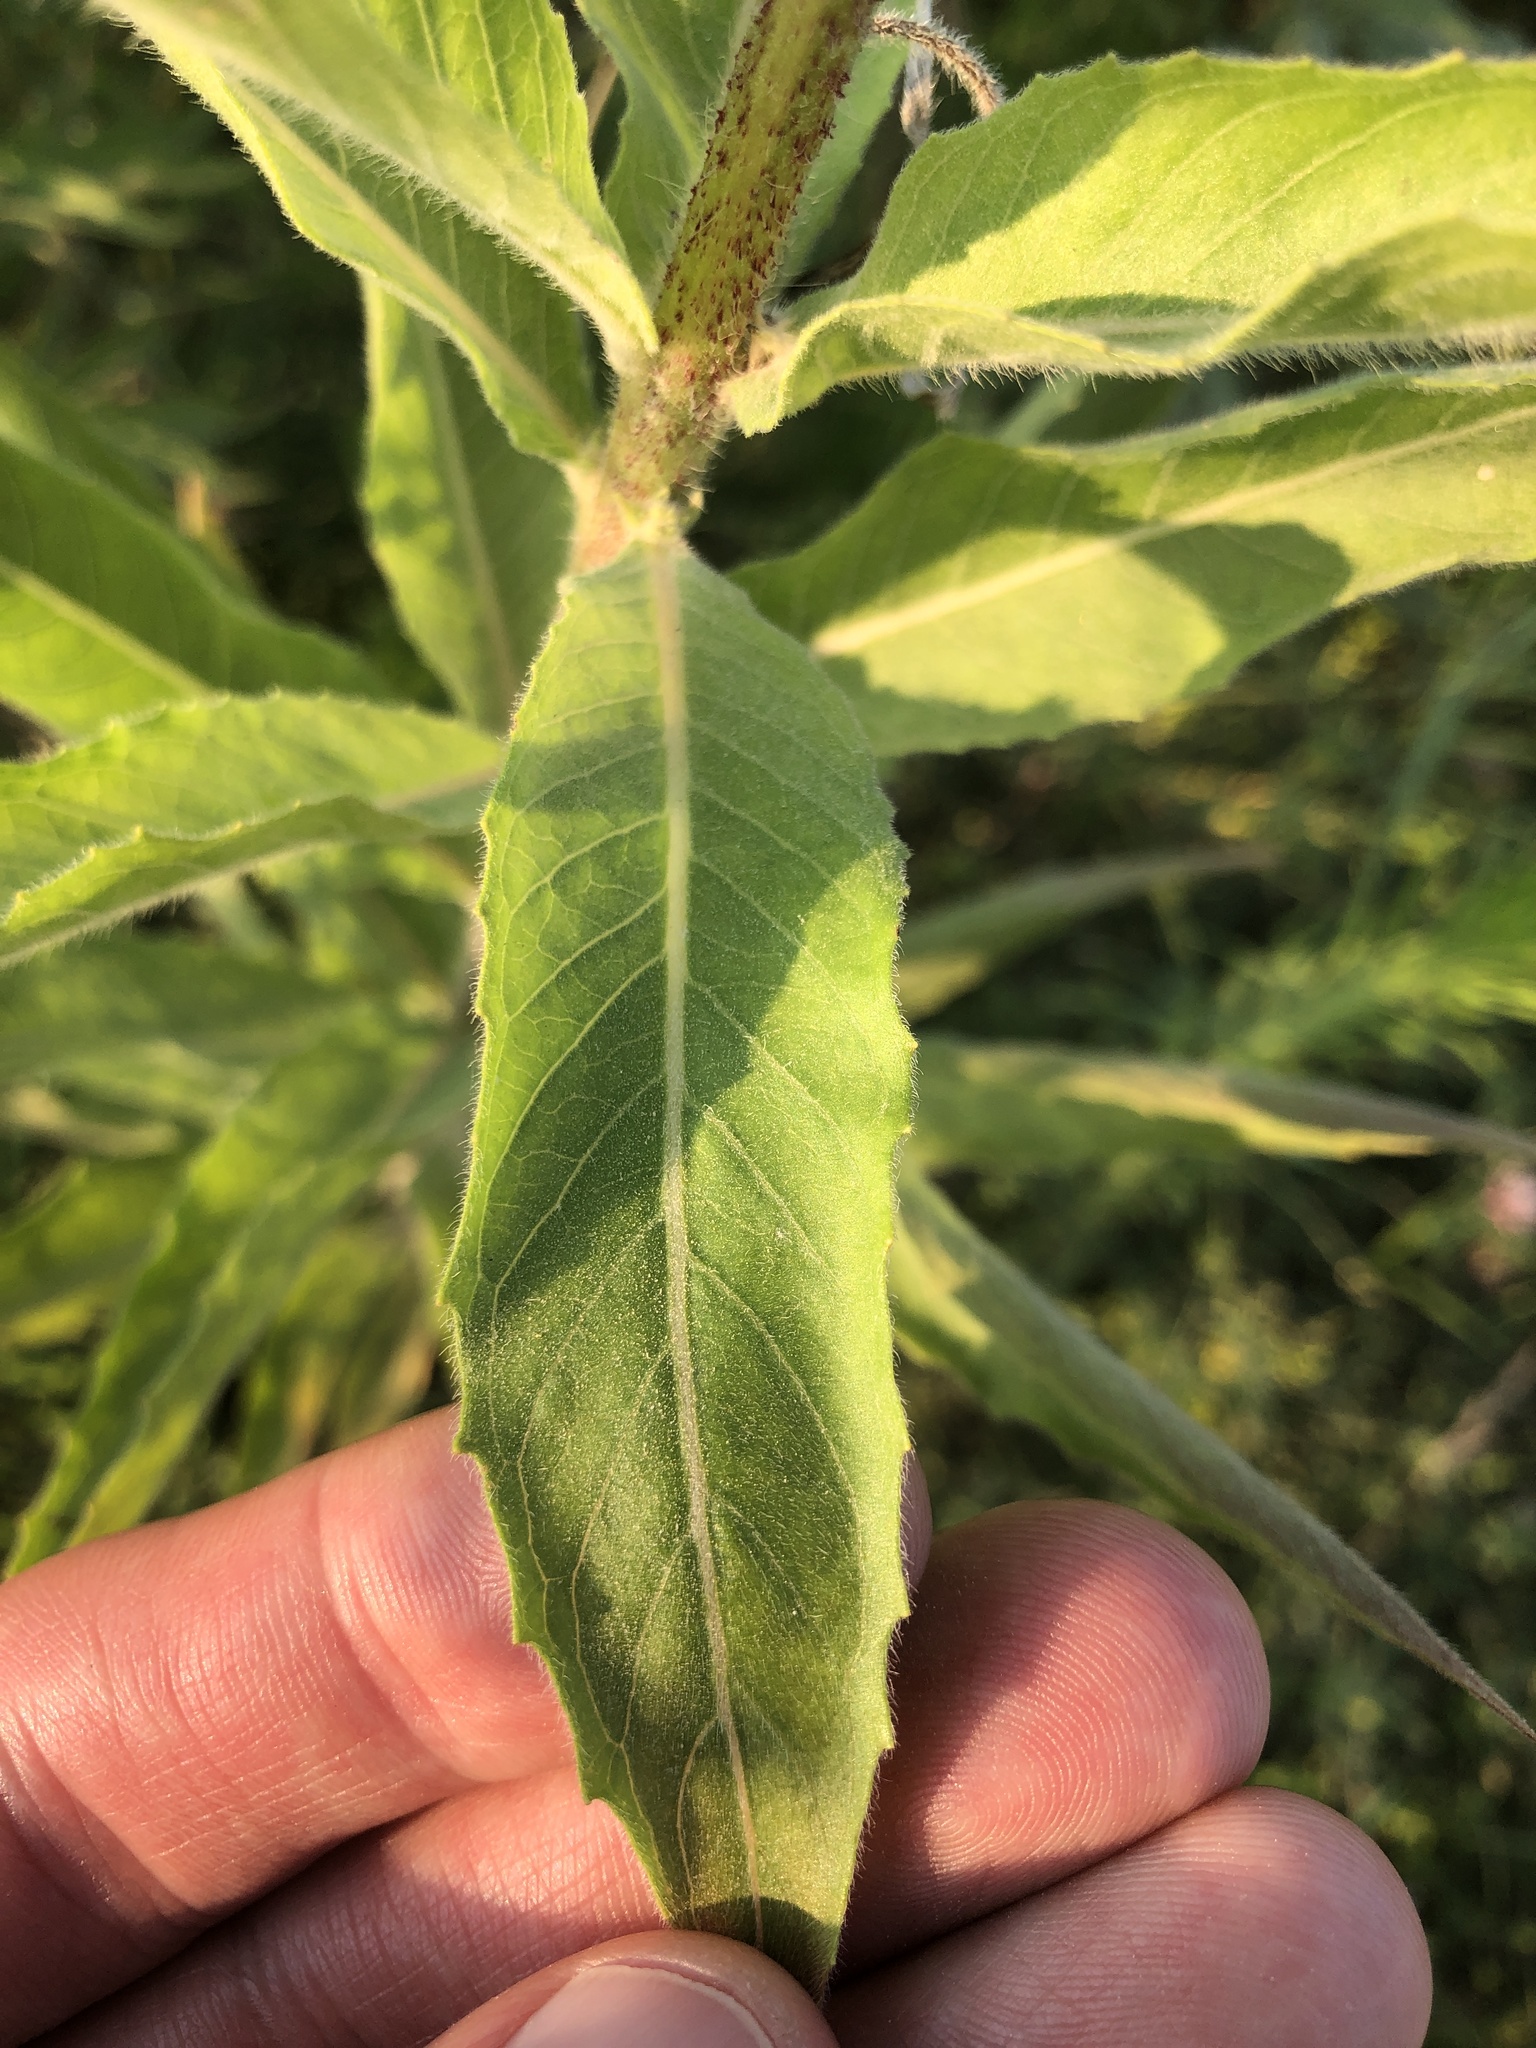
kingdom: Plantae
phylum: Tracheophyta
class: Magnoliopsida
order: Myrtales
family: Onagraceae
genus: Oenothera
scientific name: Oenothera biennis
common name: Common evening-primrose
